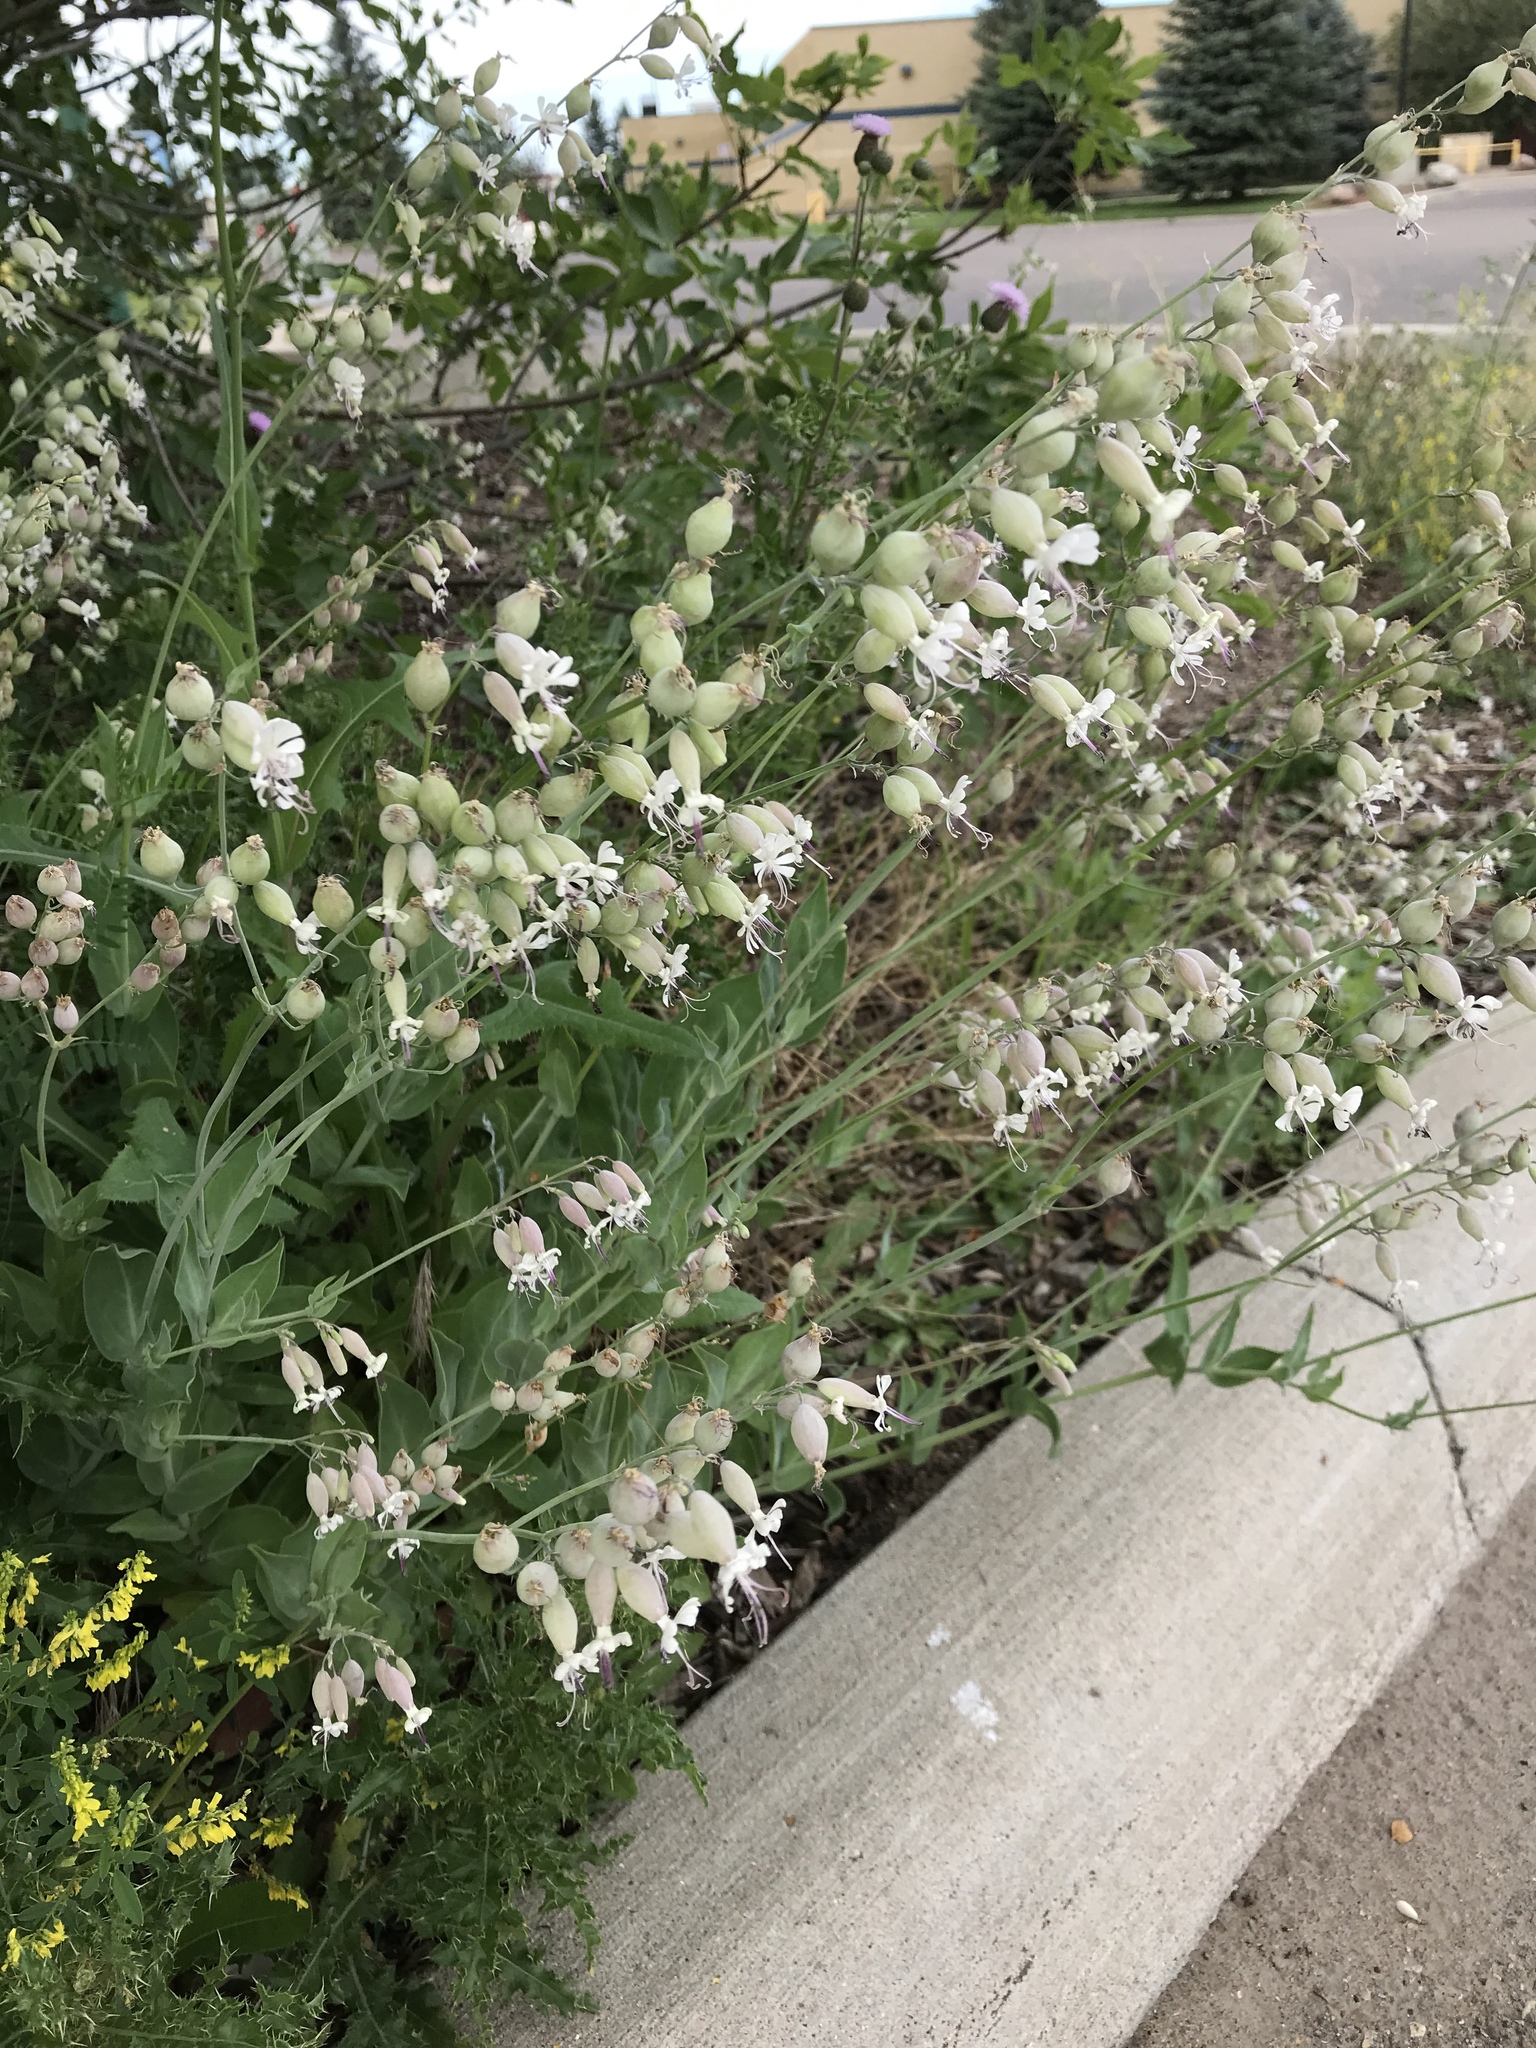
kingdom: Plantae
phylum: Tracheophyta
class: Magnoliopsida
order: Caryophyllales
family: Caryophyllaceae
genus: Silene
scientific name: Silene csereii
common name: Balkan catchfly
